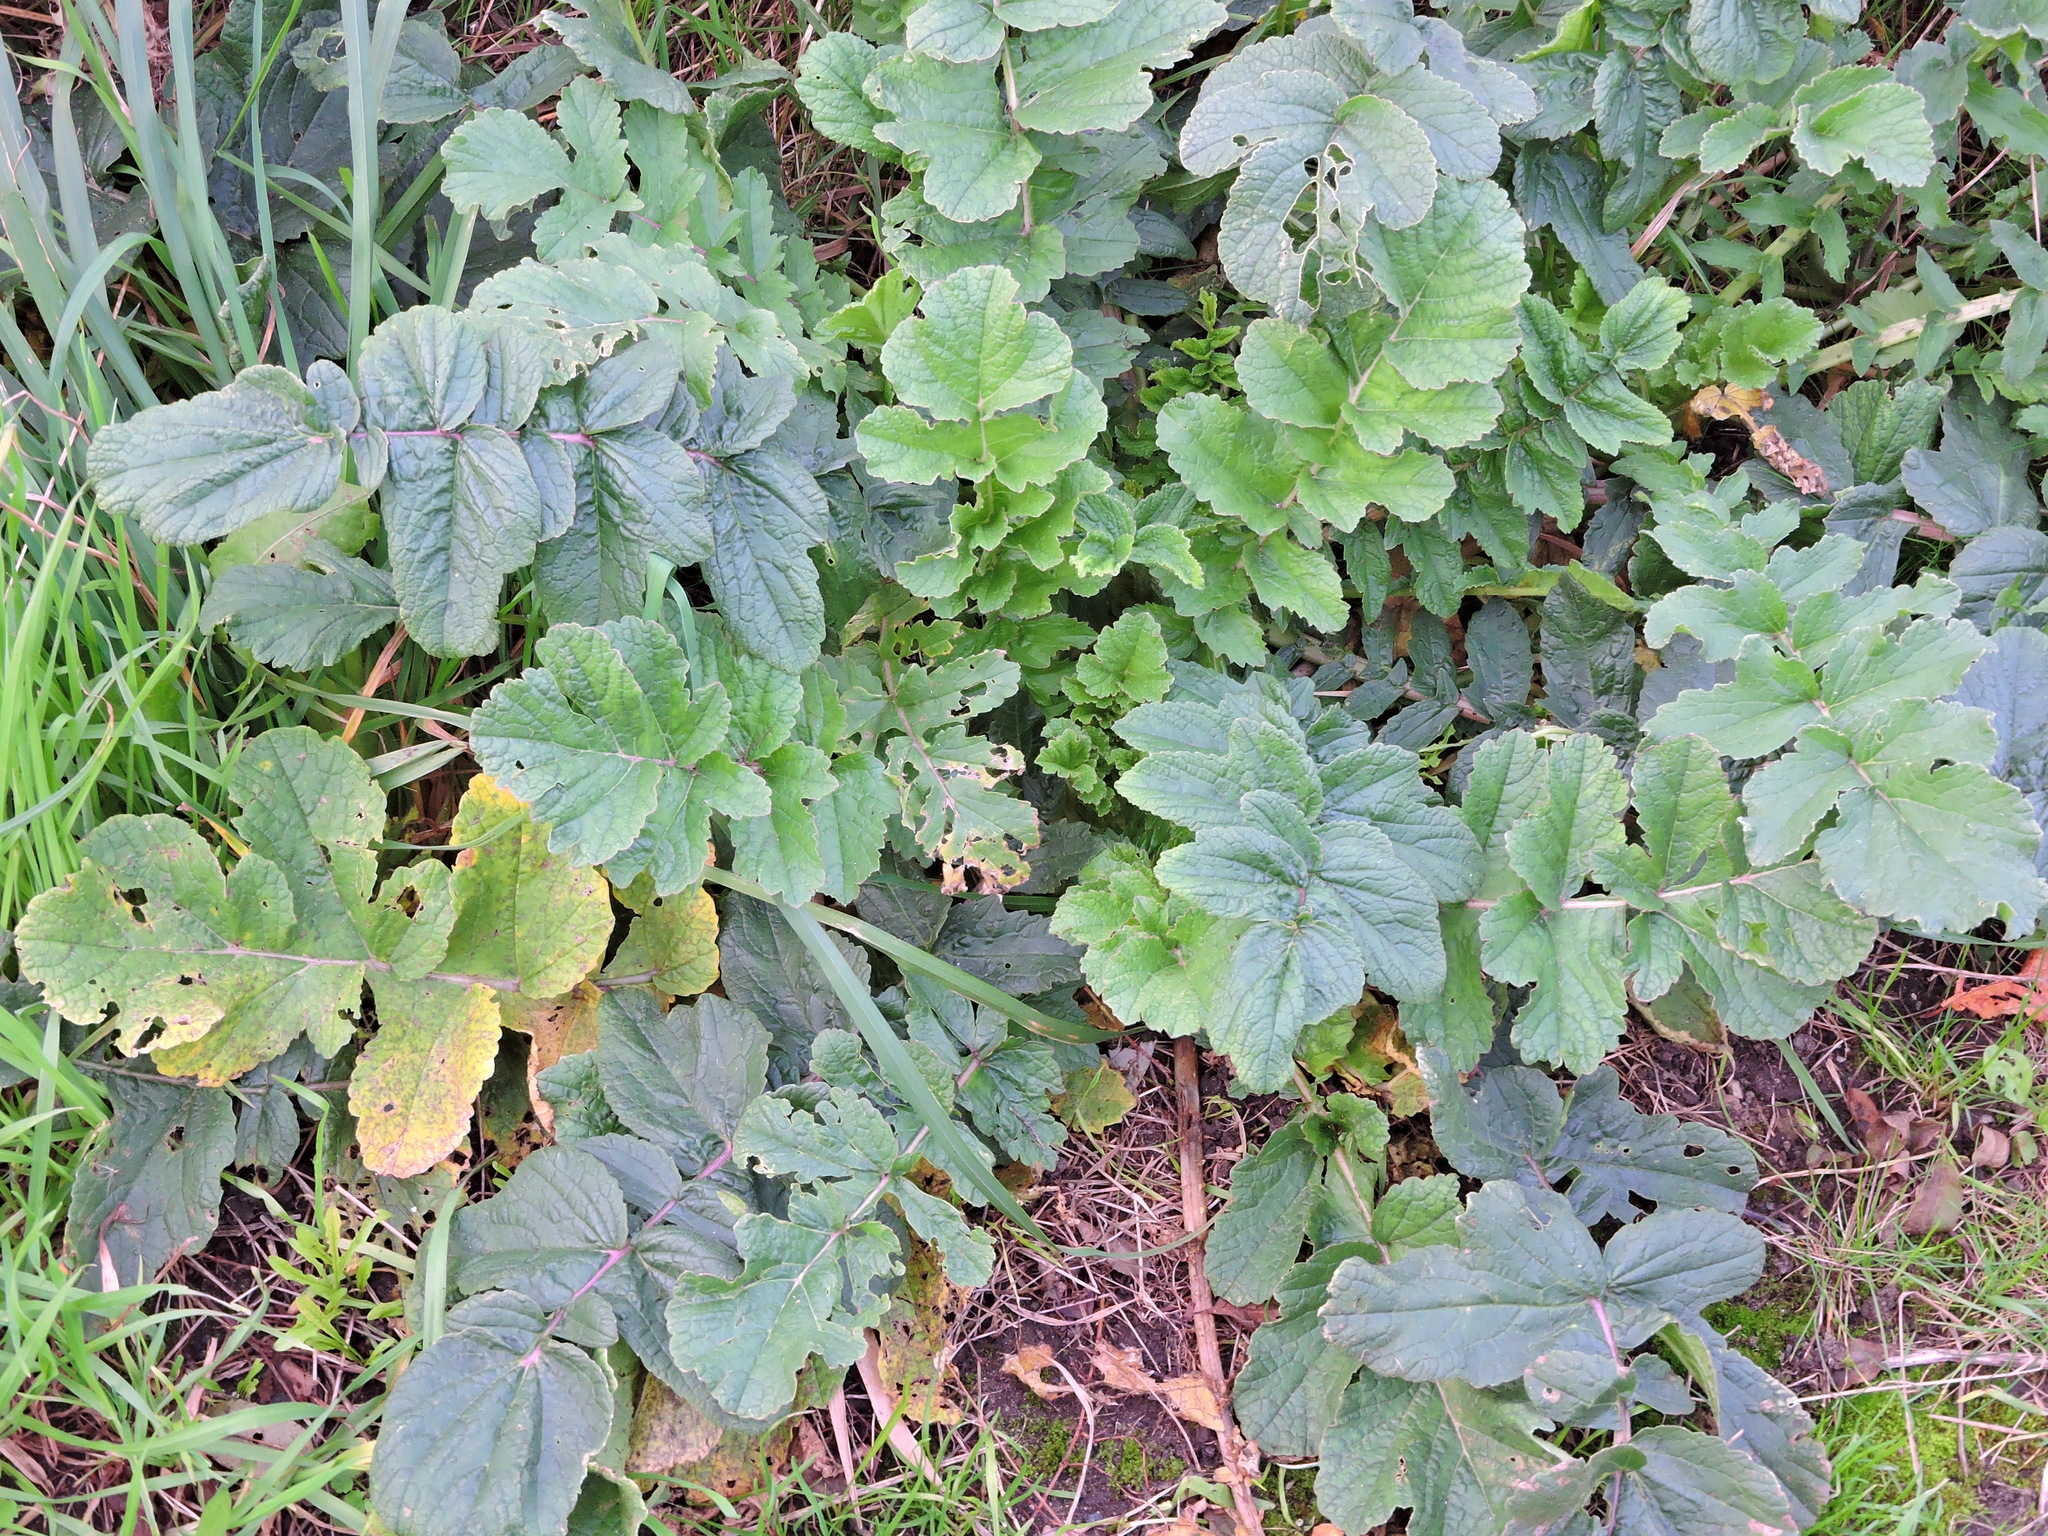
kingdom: Plantae
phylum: Tracheophyta
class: Magnoliopsida
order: Brassicales
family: Brassicaceae
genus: Raphanus
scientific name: Raphanus raphanistrum
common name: Wild radish
